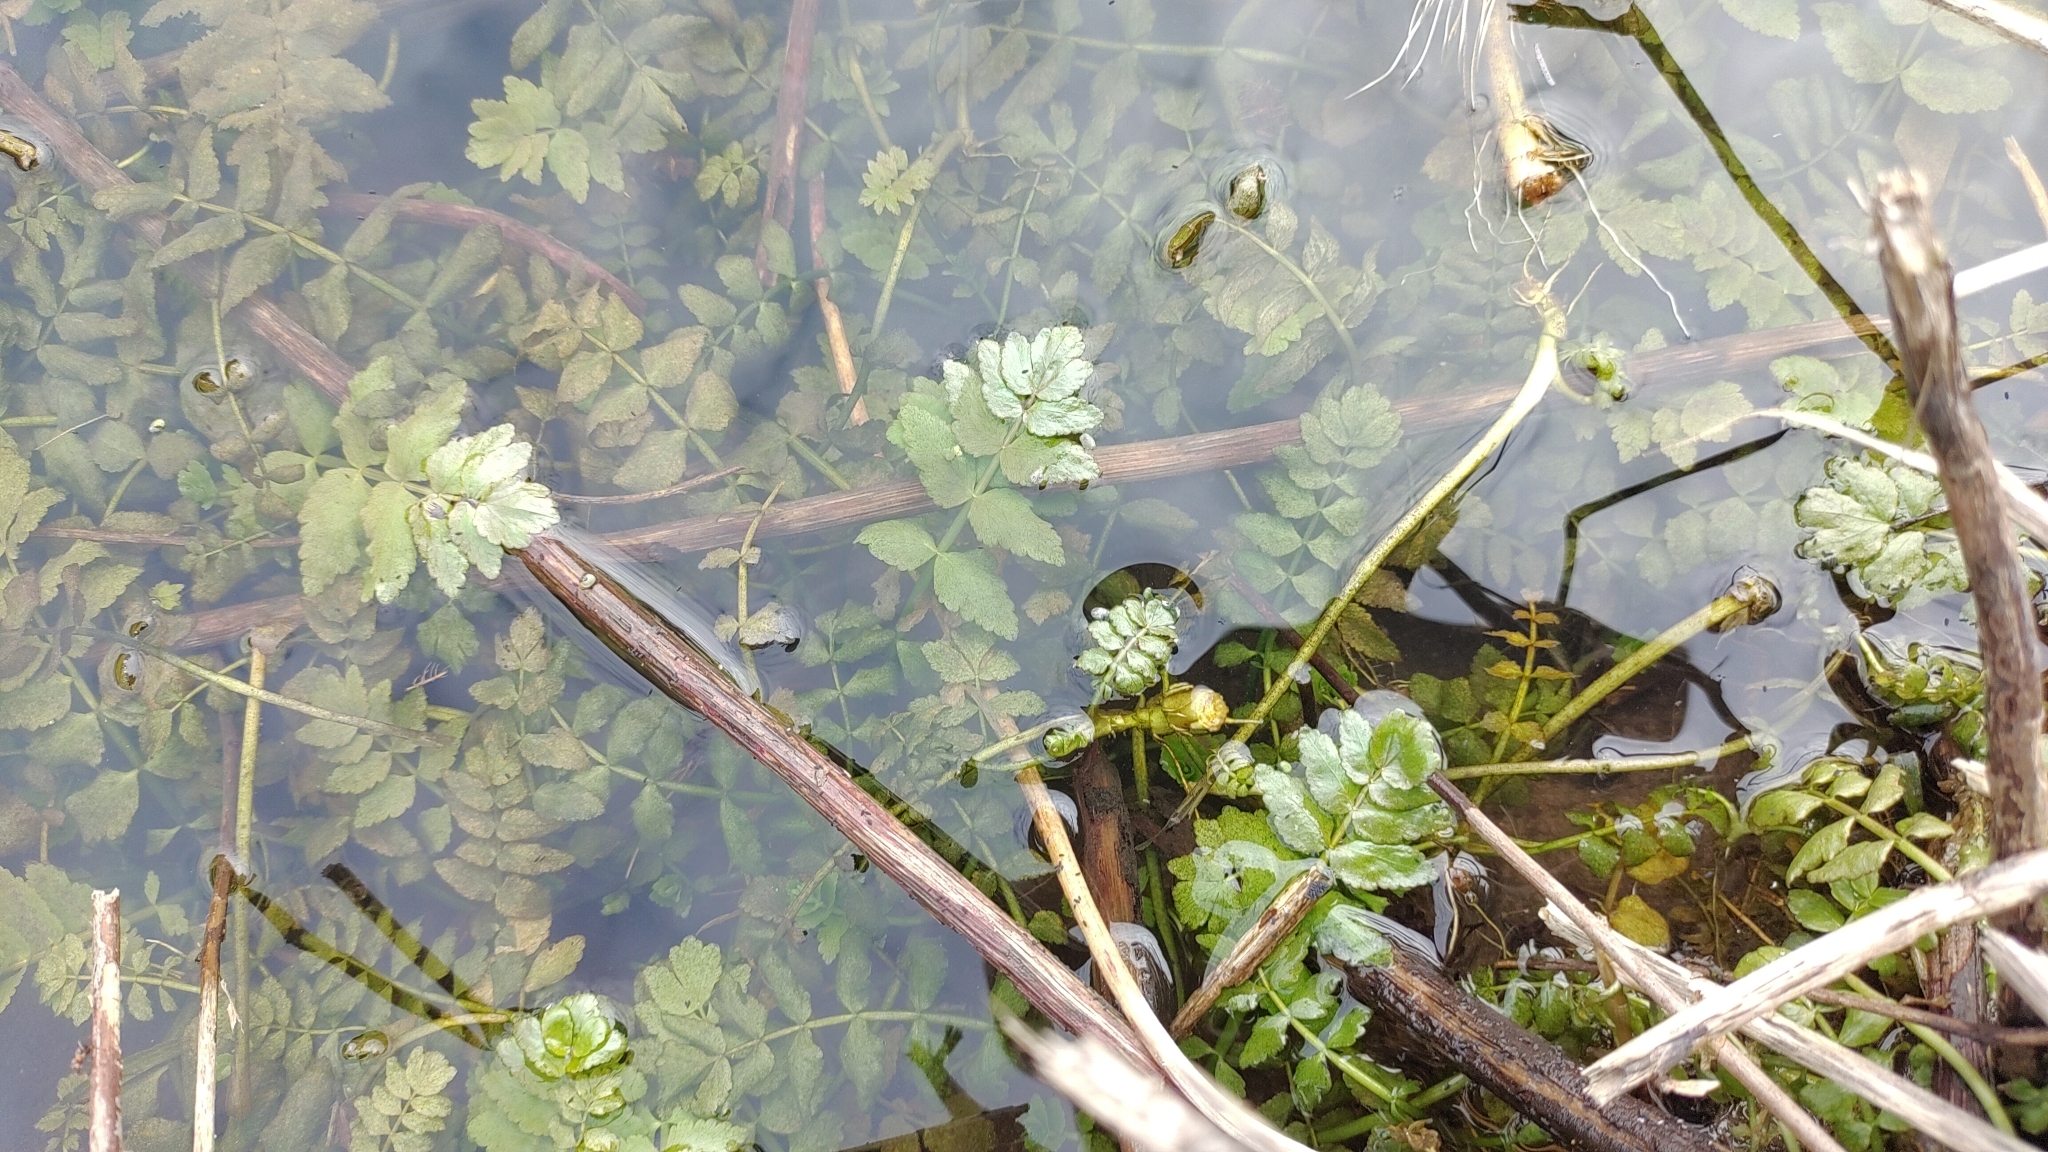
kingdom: Plantae
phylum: Tracheophyta
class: Magnoliopsida
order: Apiales
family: Apiaceae
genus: Berula
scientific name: Berula erecta
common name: Lesser water-parsnip
